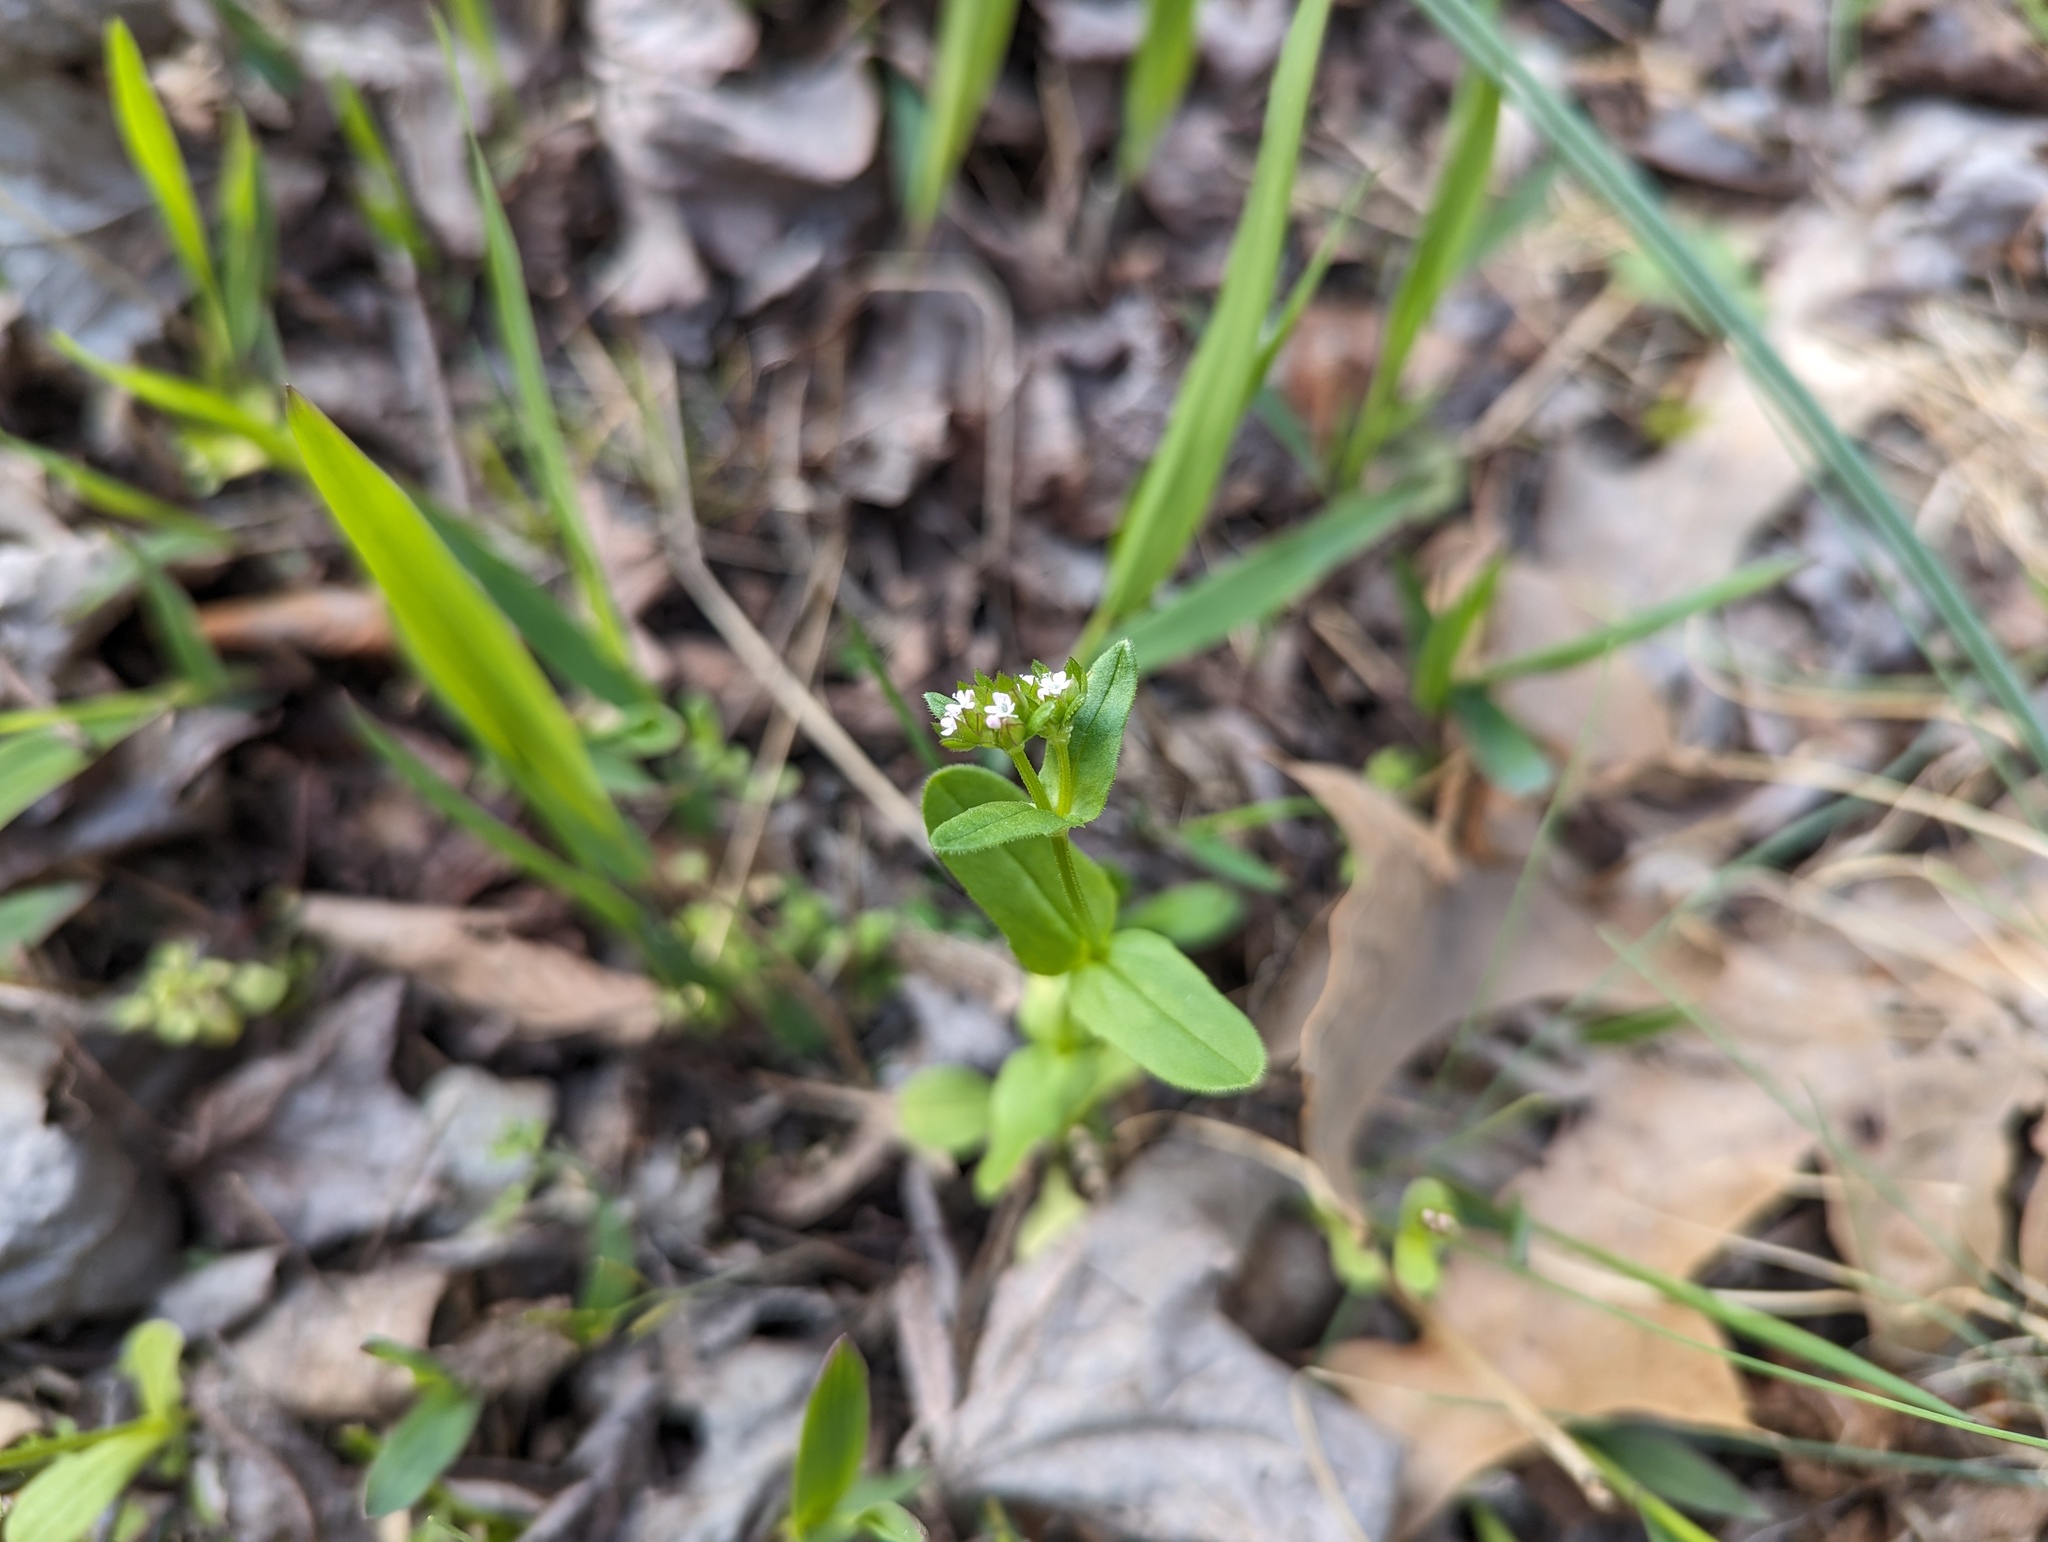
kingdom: Plantae
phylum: Tracheophyta
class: Magnoliopsida
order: Dipsacales
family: Caprifoliaceae
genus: Valerianella
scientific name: Valerianella radiata
